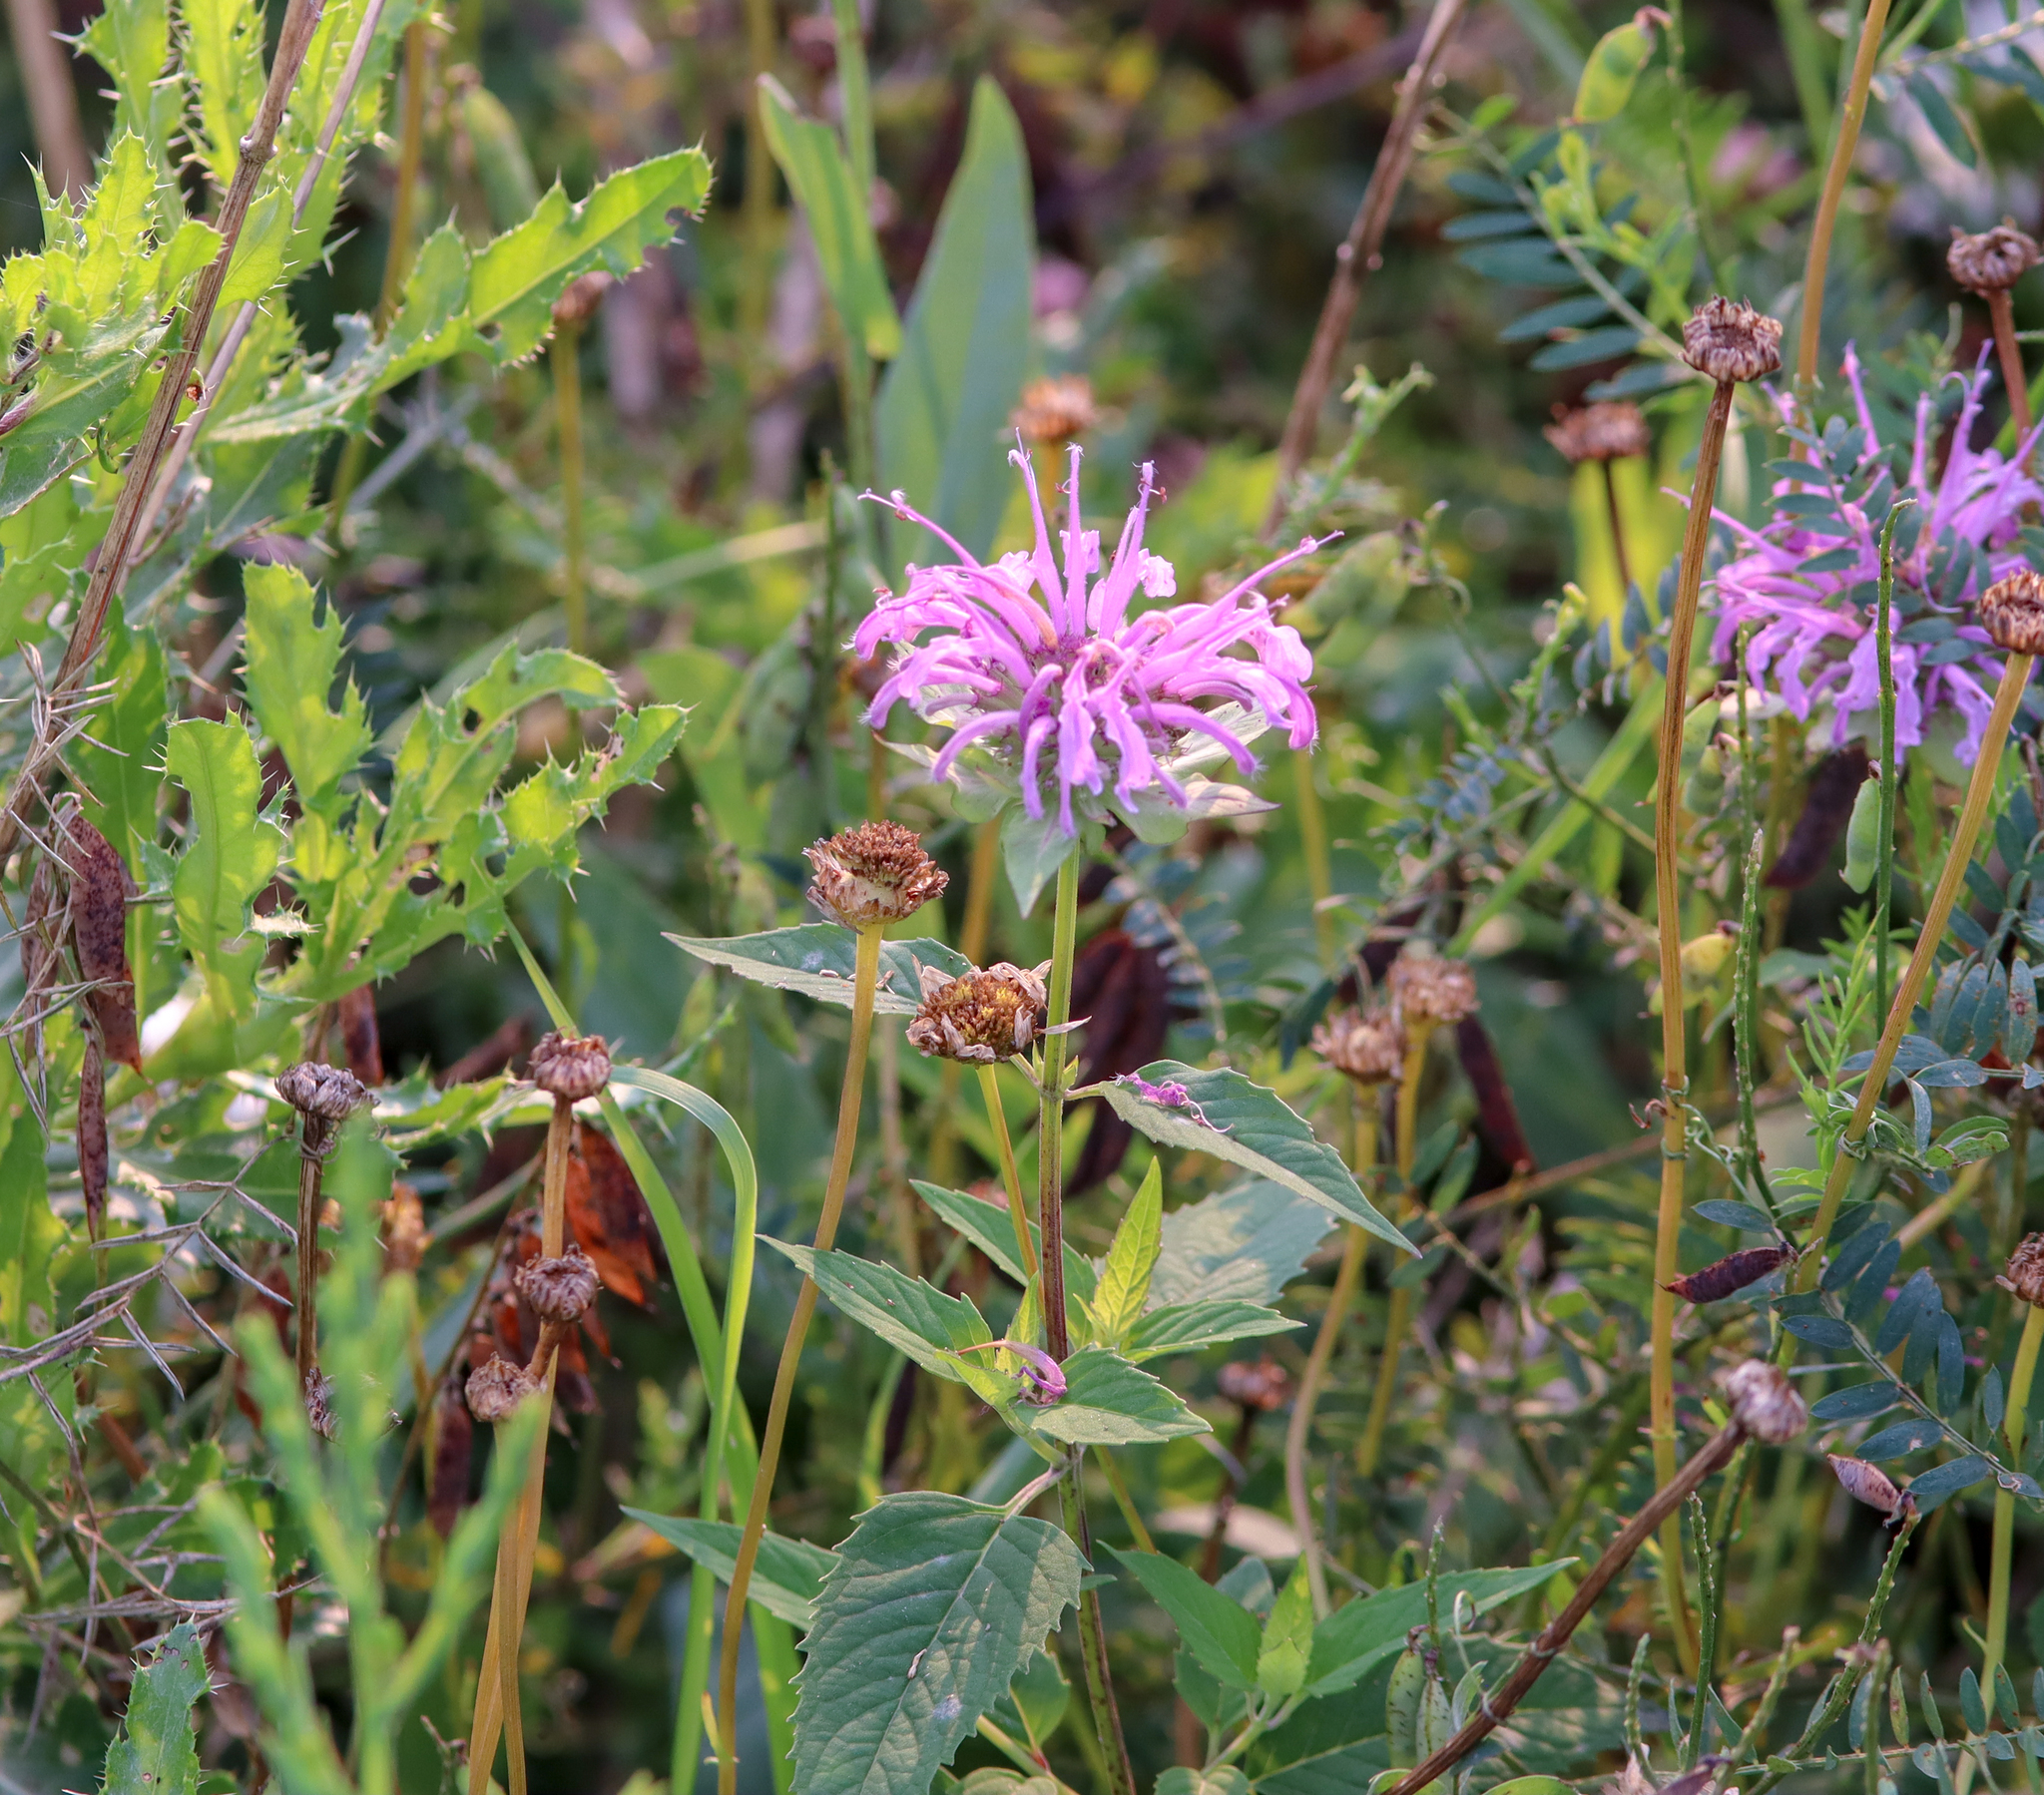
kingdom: Plantae
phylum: Tracheophyta
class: Magnoliopsida
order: Lamiales
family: Lamiaceae
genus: Monarda
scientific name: Monarda fistulosa
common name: Purple beebalm
